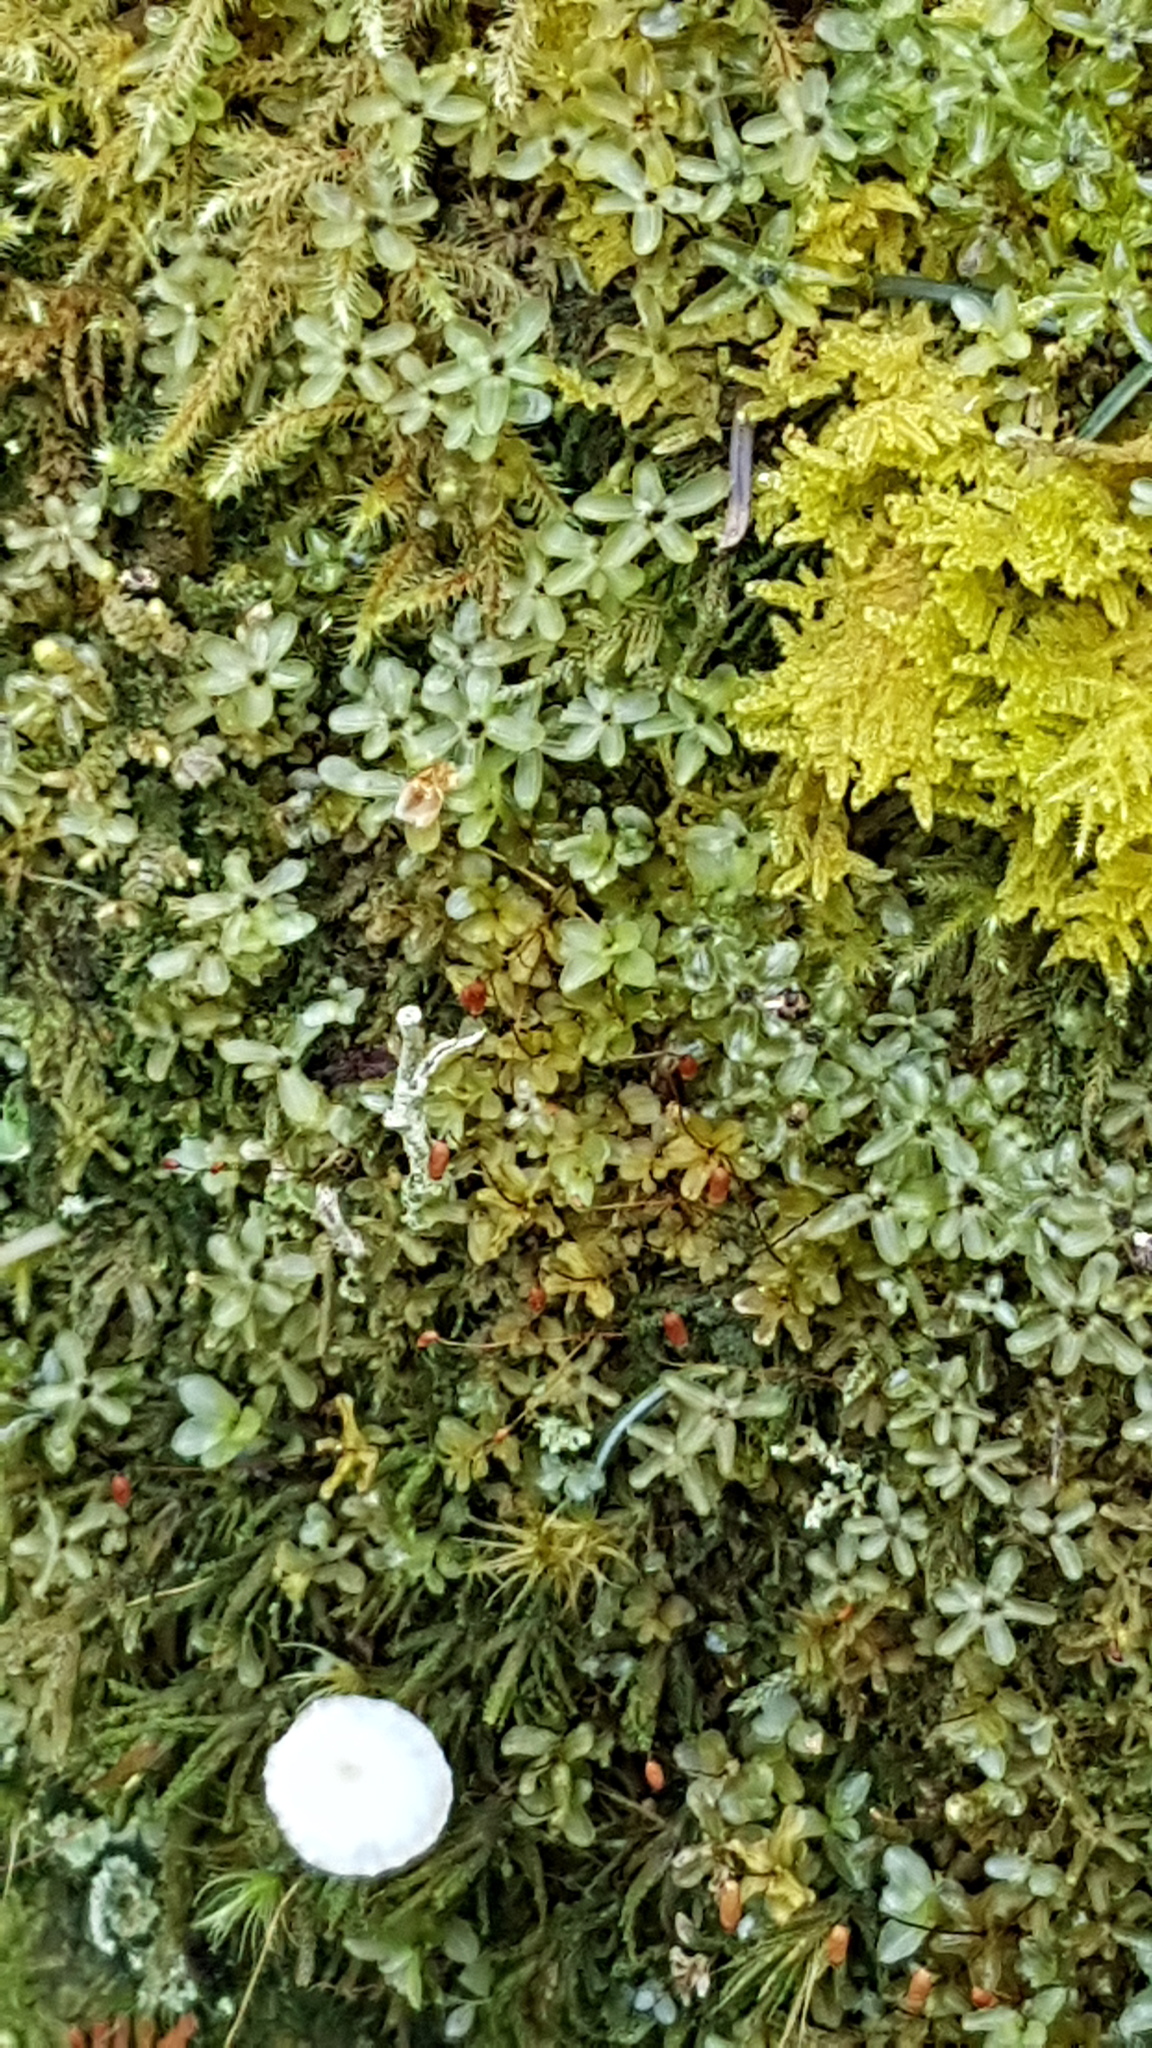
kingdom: Plantae
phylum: Bryophyta
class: Bryopsida
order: Bryales
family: Mniaceae
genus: Rhizomnium
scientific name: Rhizomnium glabrescens
